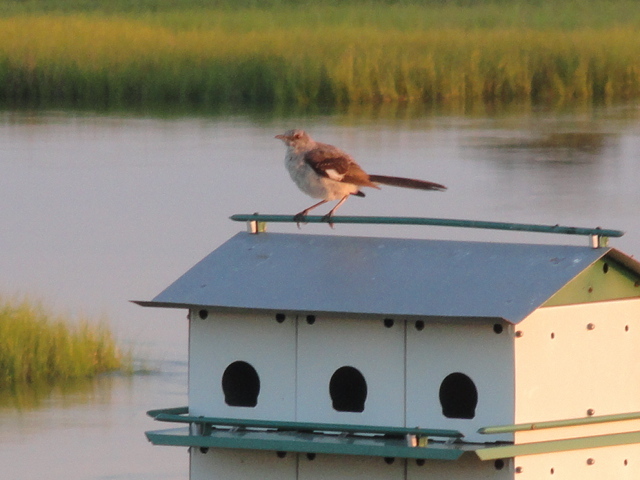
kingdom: Animalia
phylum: Chordata
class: Aves
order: Passeriformes
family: Mimidae
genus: Mimus
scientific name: Mimus polyglottos
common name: Northern mockingbird
